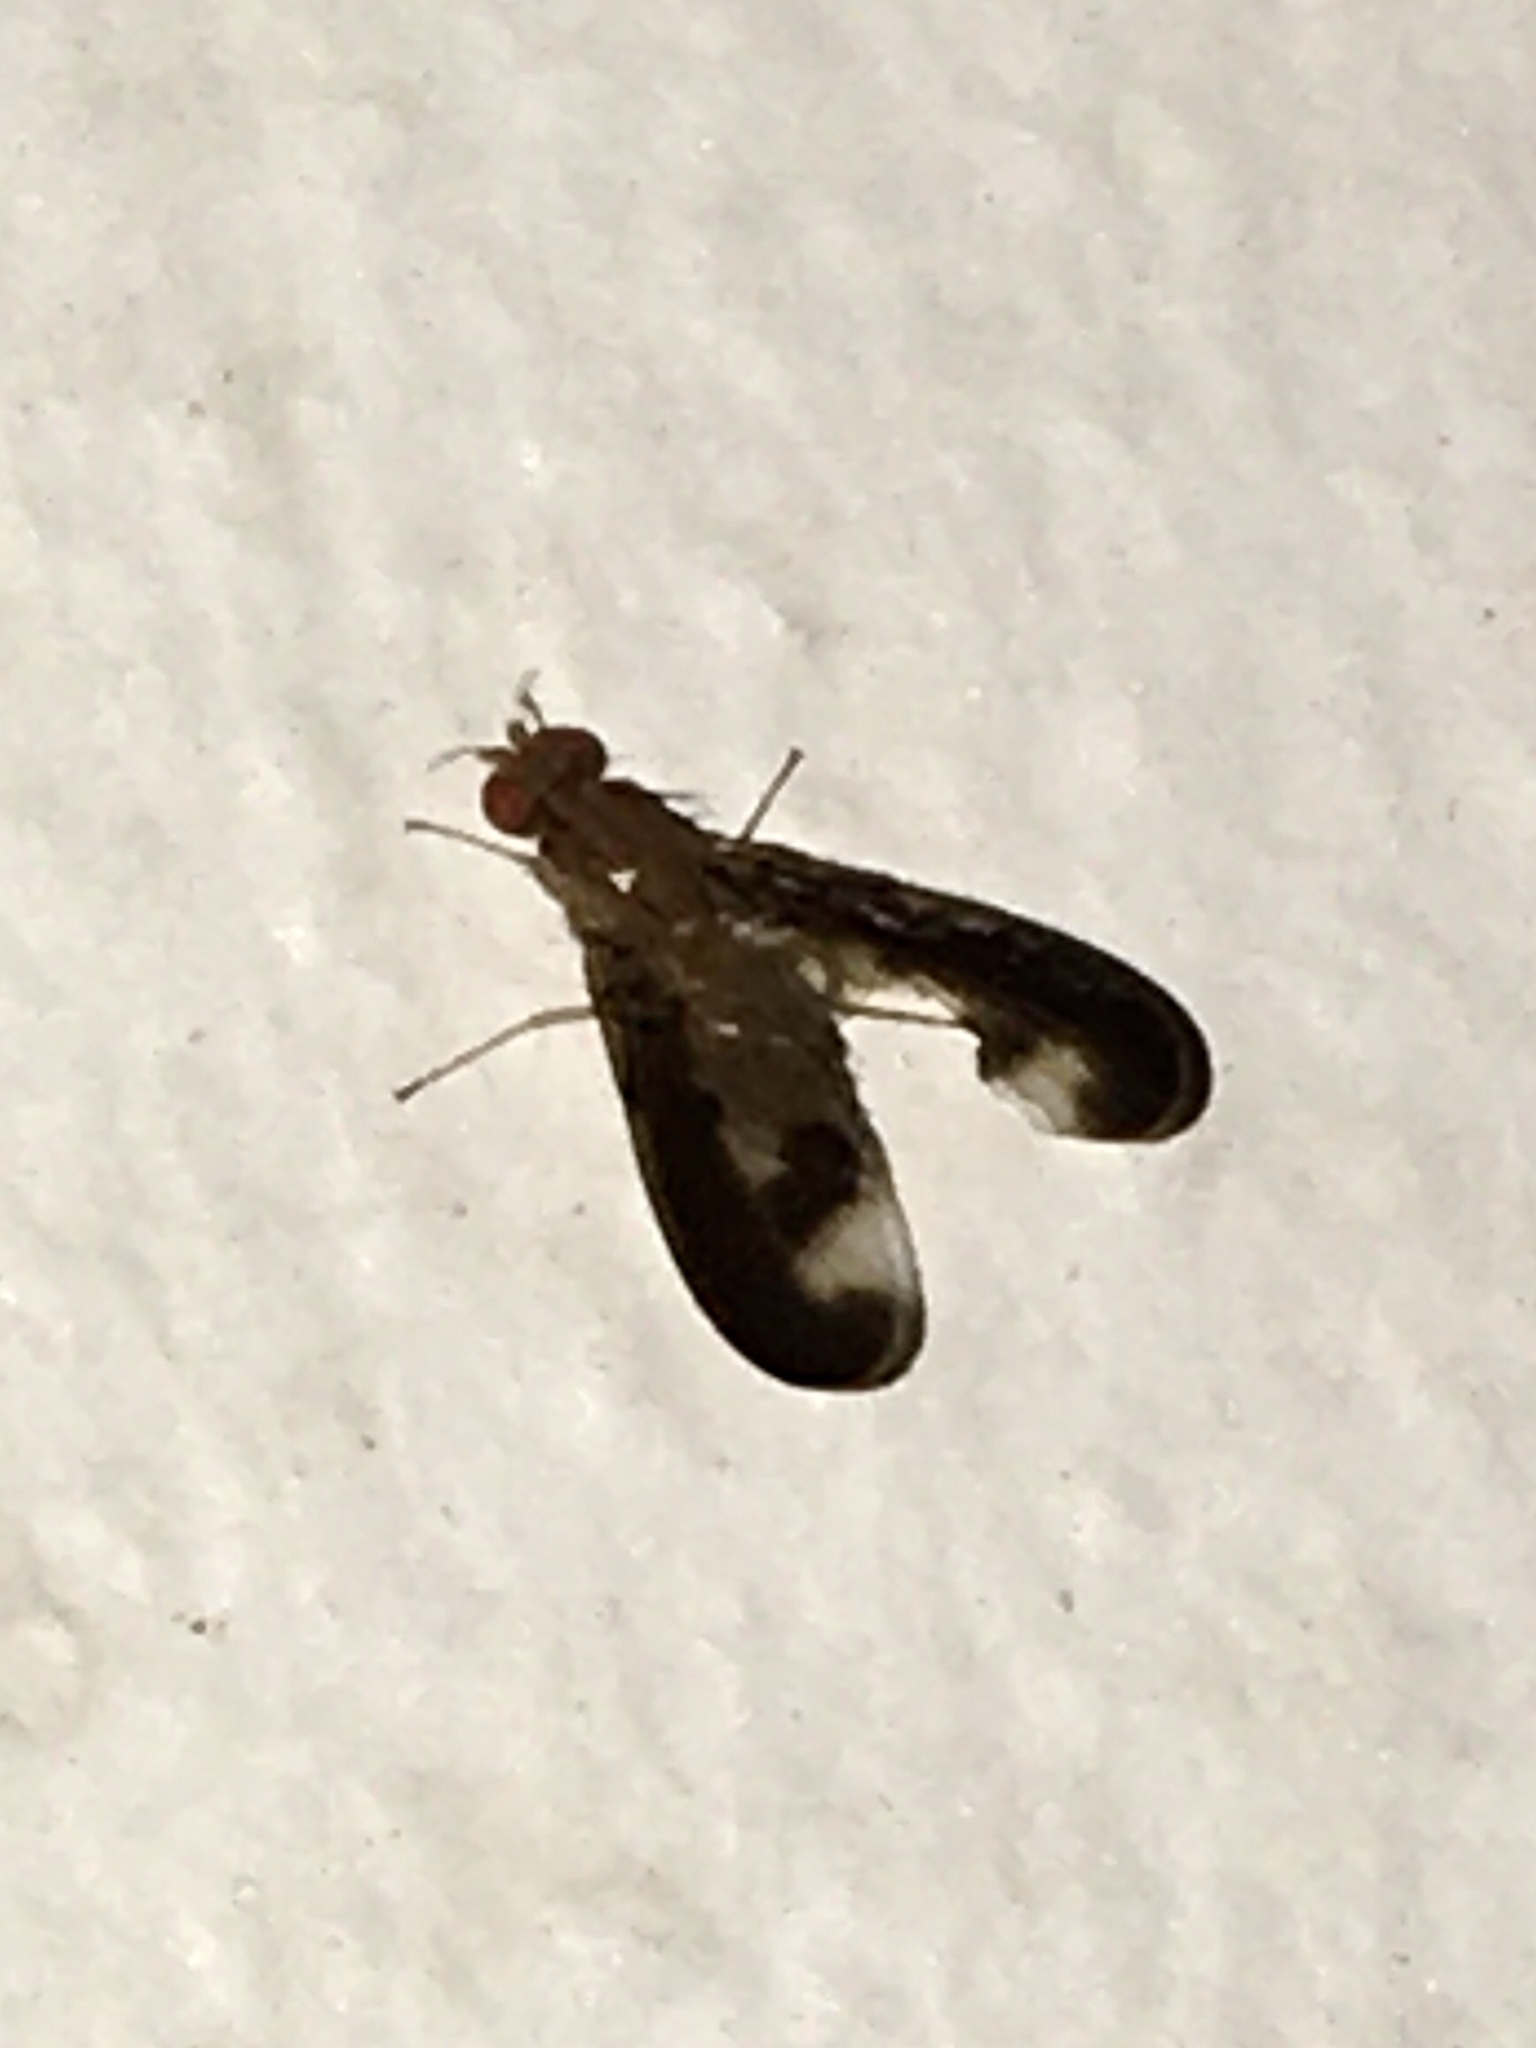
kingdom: Animalia
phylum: Arthropoda
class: Insecta
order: Diptera
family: Pallopteridae
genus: Toxonevra
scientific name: Toxonevra superba
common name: Antlered flutter fly
